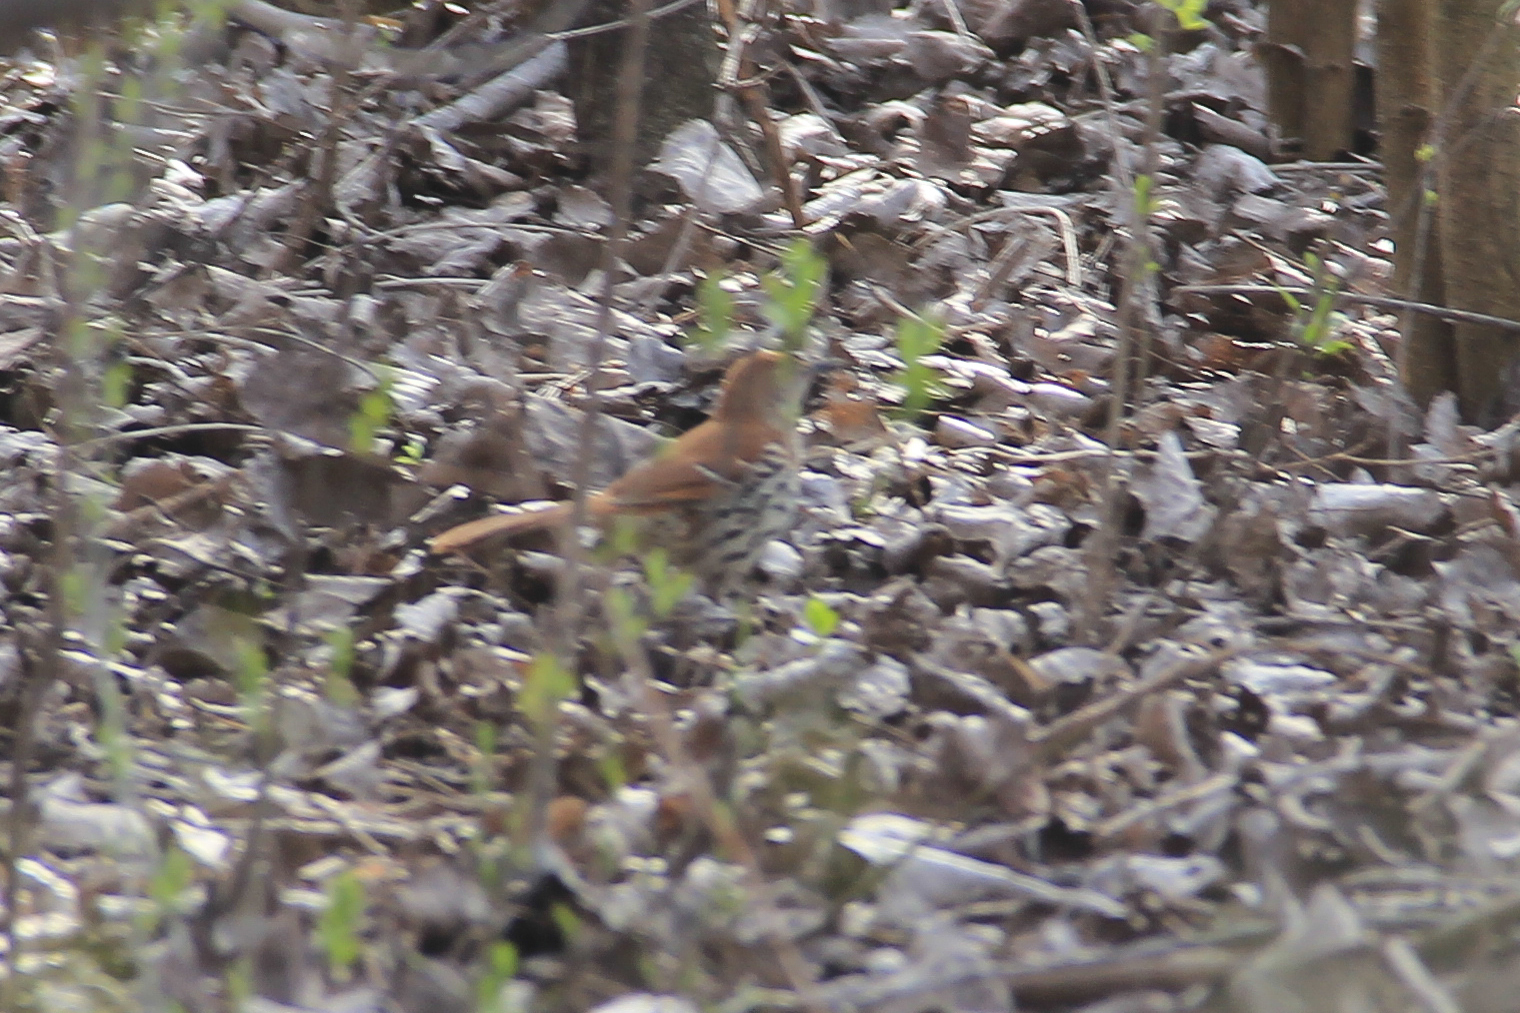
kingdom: Animalia
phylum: Chordata
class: Aves
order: Passeriformes
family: Mimidae
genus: Toxostoma
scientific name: Toxostoma rufum
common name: Brown thrasher
